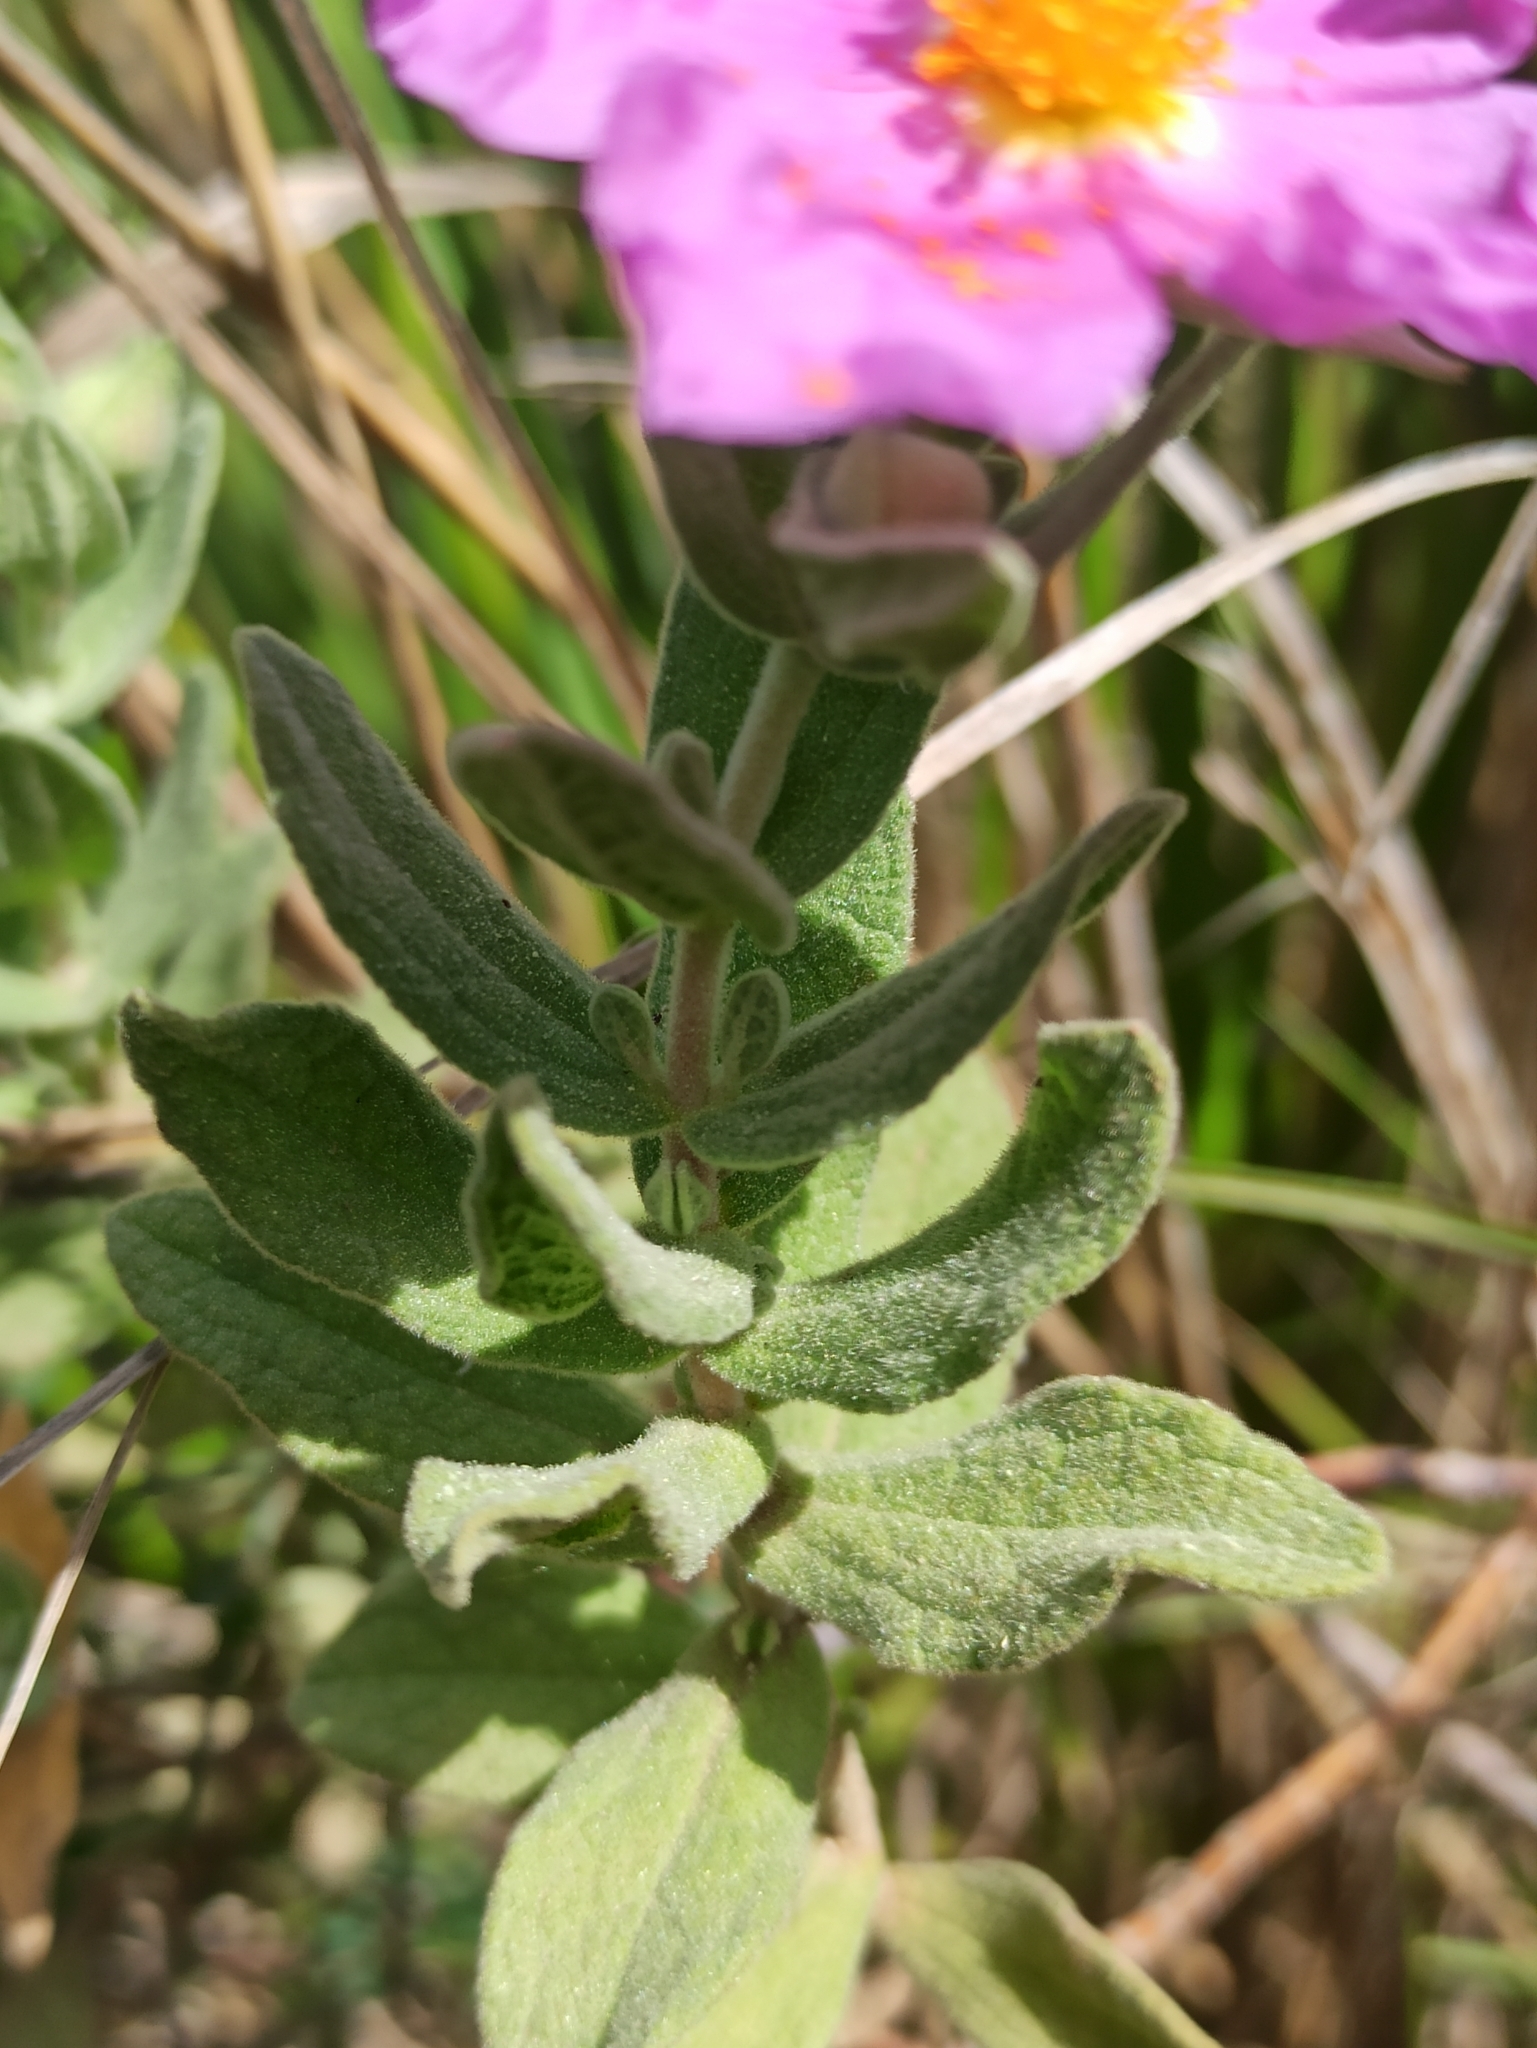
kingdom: Plantae
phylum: Tracheophyta
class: Magnoliopsida
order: Malvales
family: Cistaceae
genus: Cistus
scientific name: Cistus albidus
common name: White-leaf rock-rose
